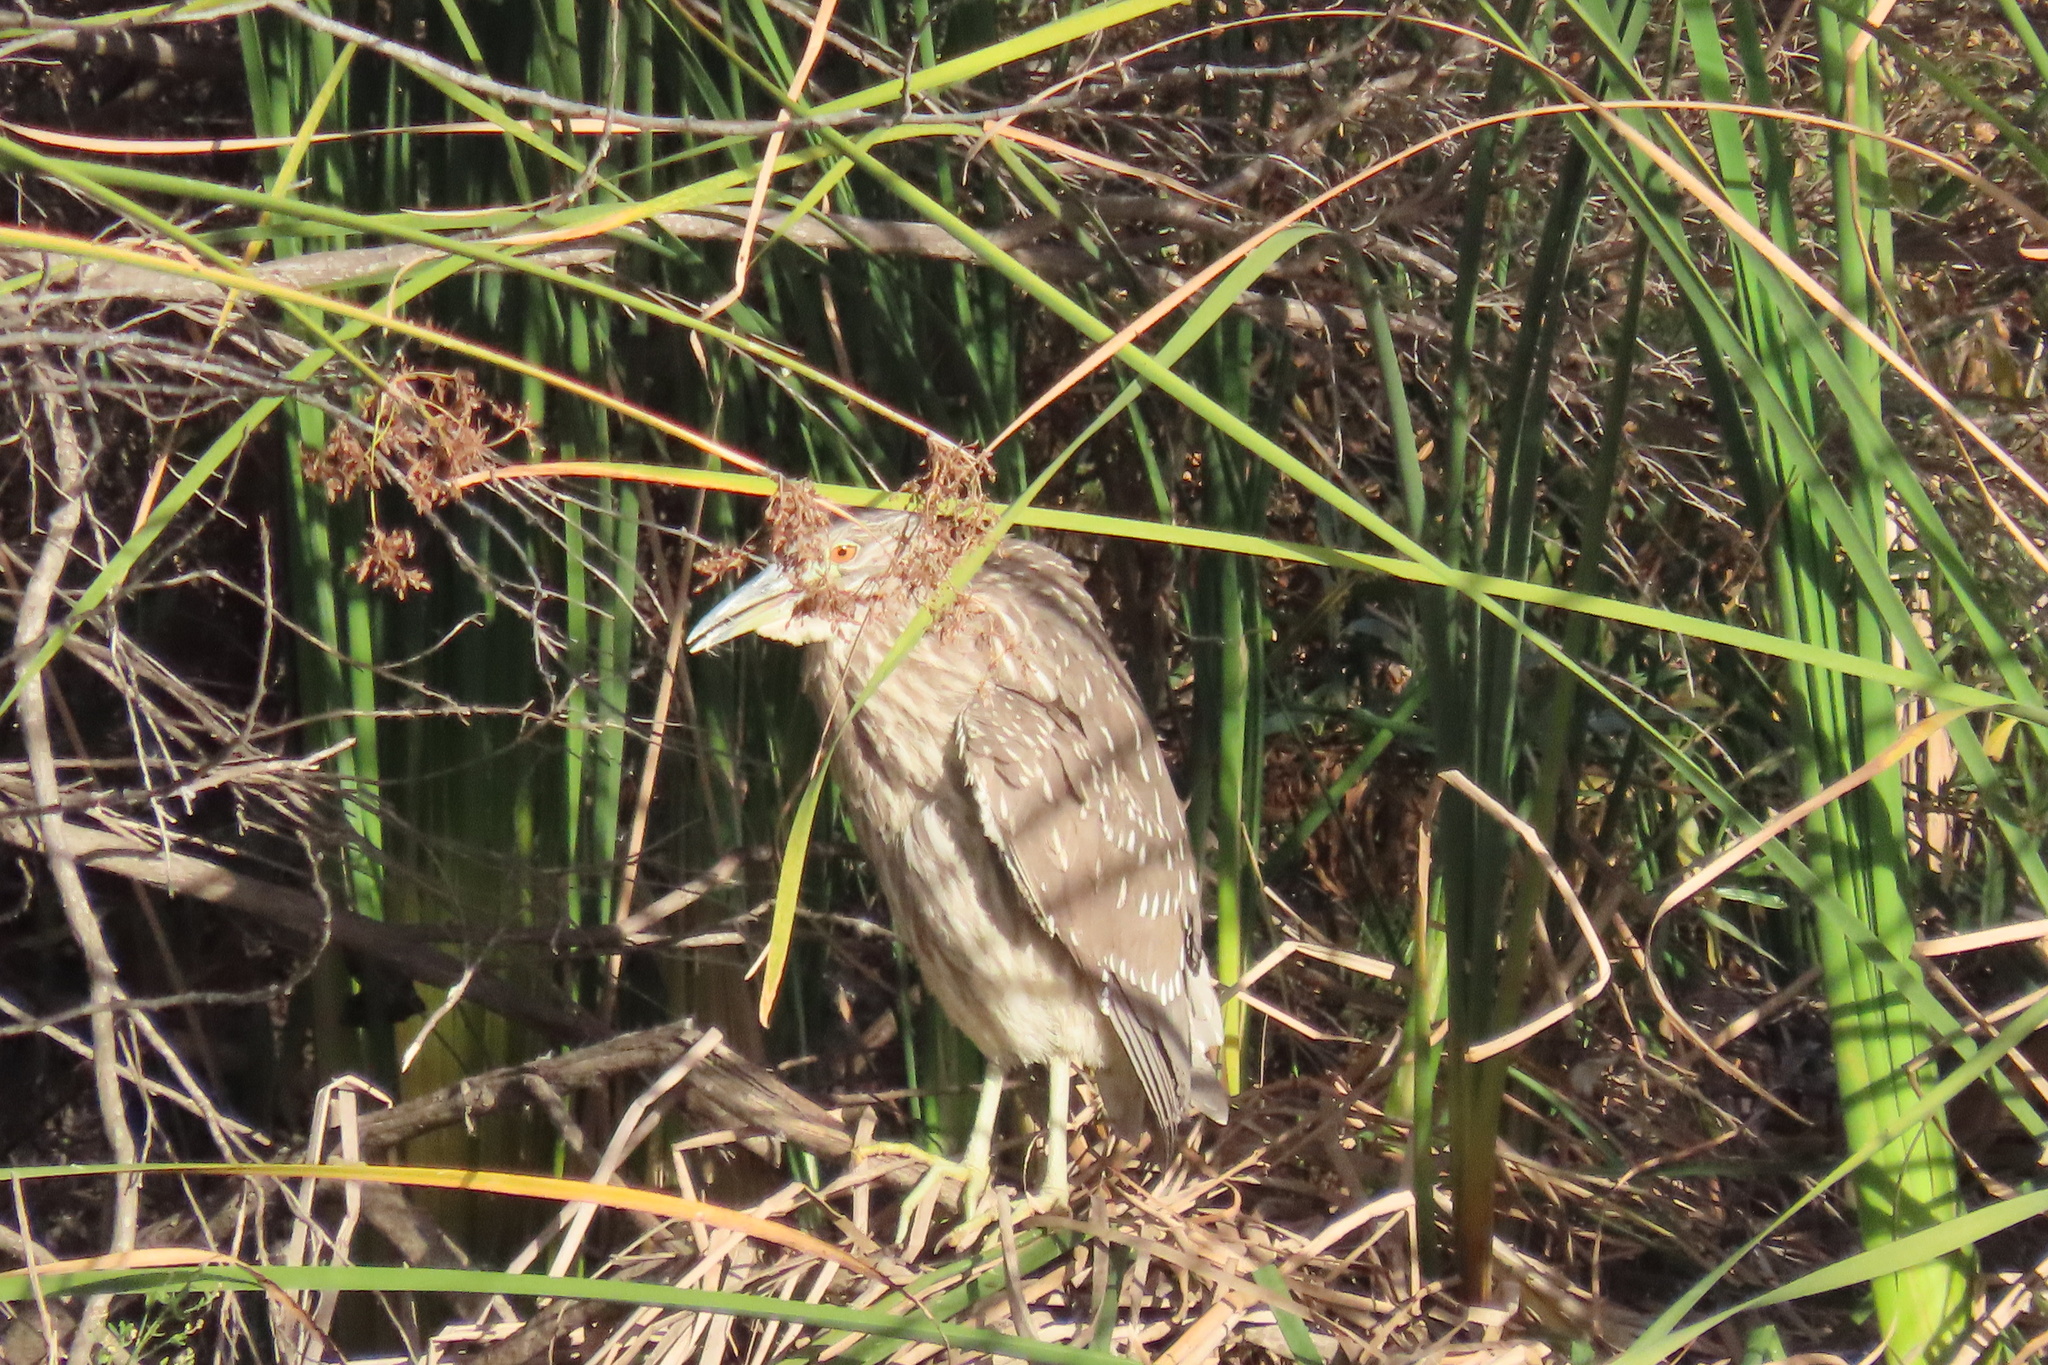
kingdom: Animalia
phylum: Chordata
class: Aves
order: Pelecaniformes
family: Ardeidae
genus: Nycticorax
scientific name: Nycticorax nycticorax
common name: Black-crowned night heron
